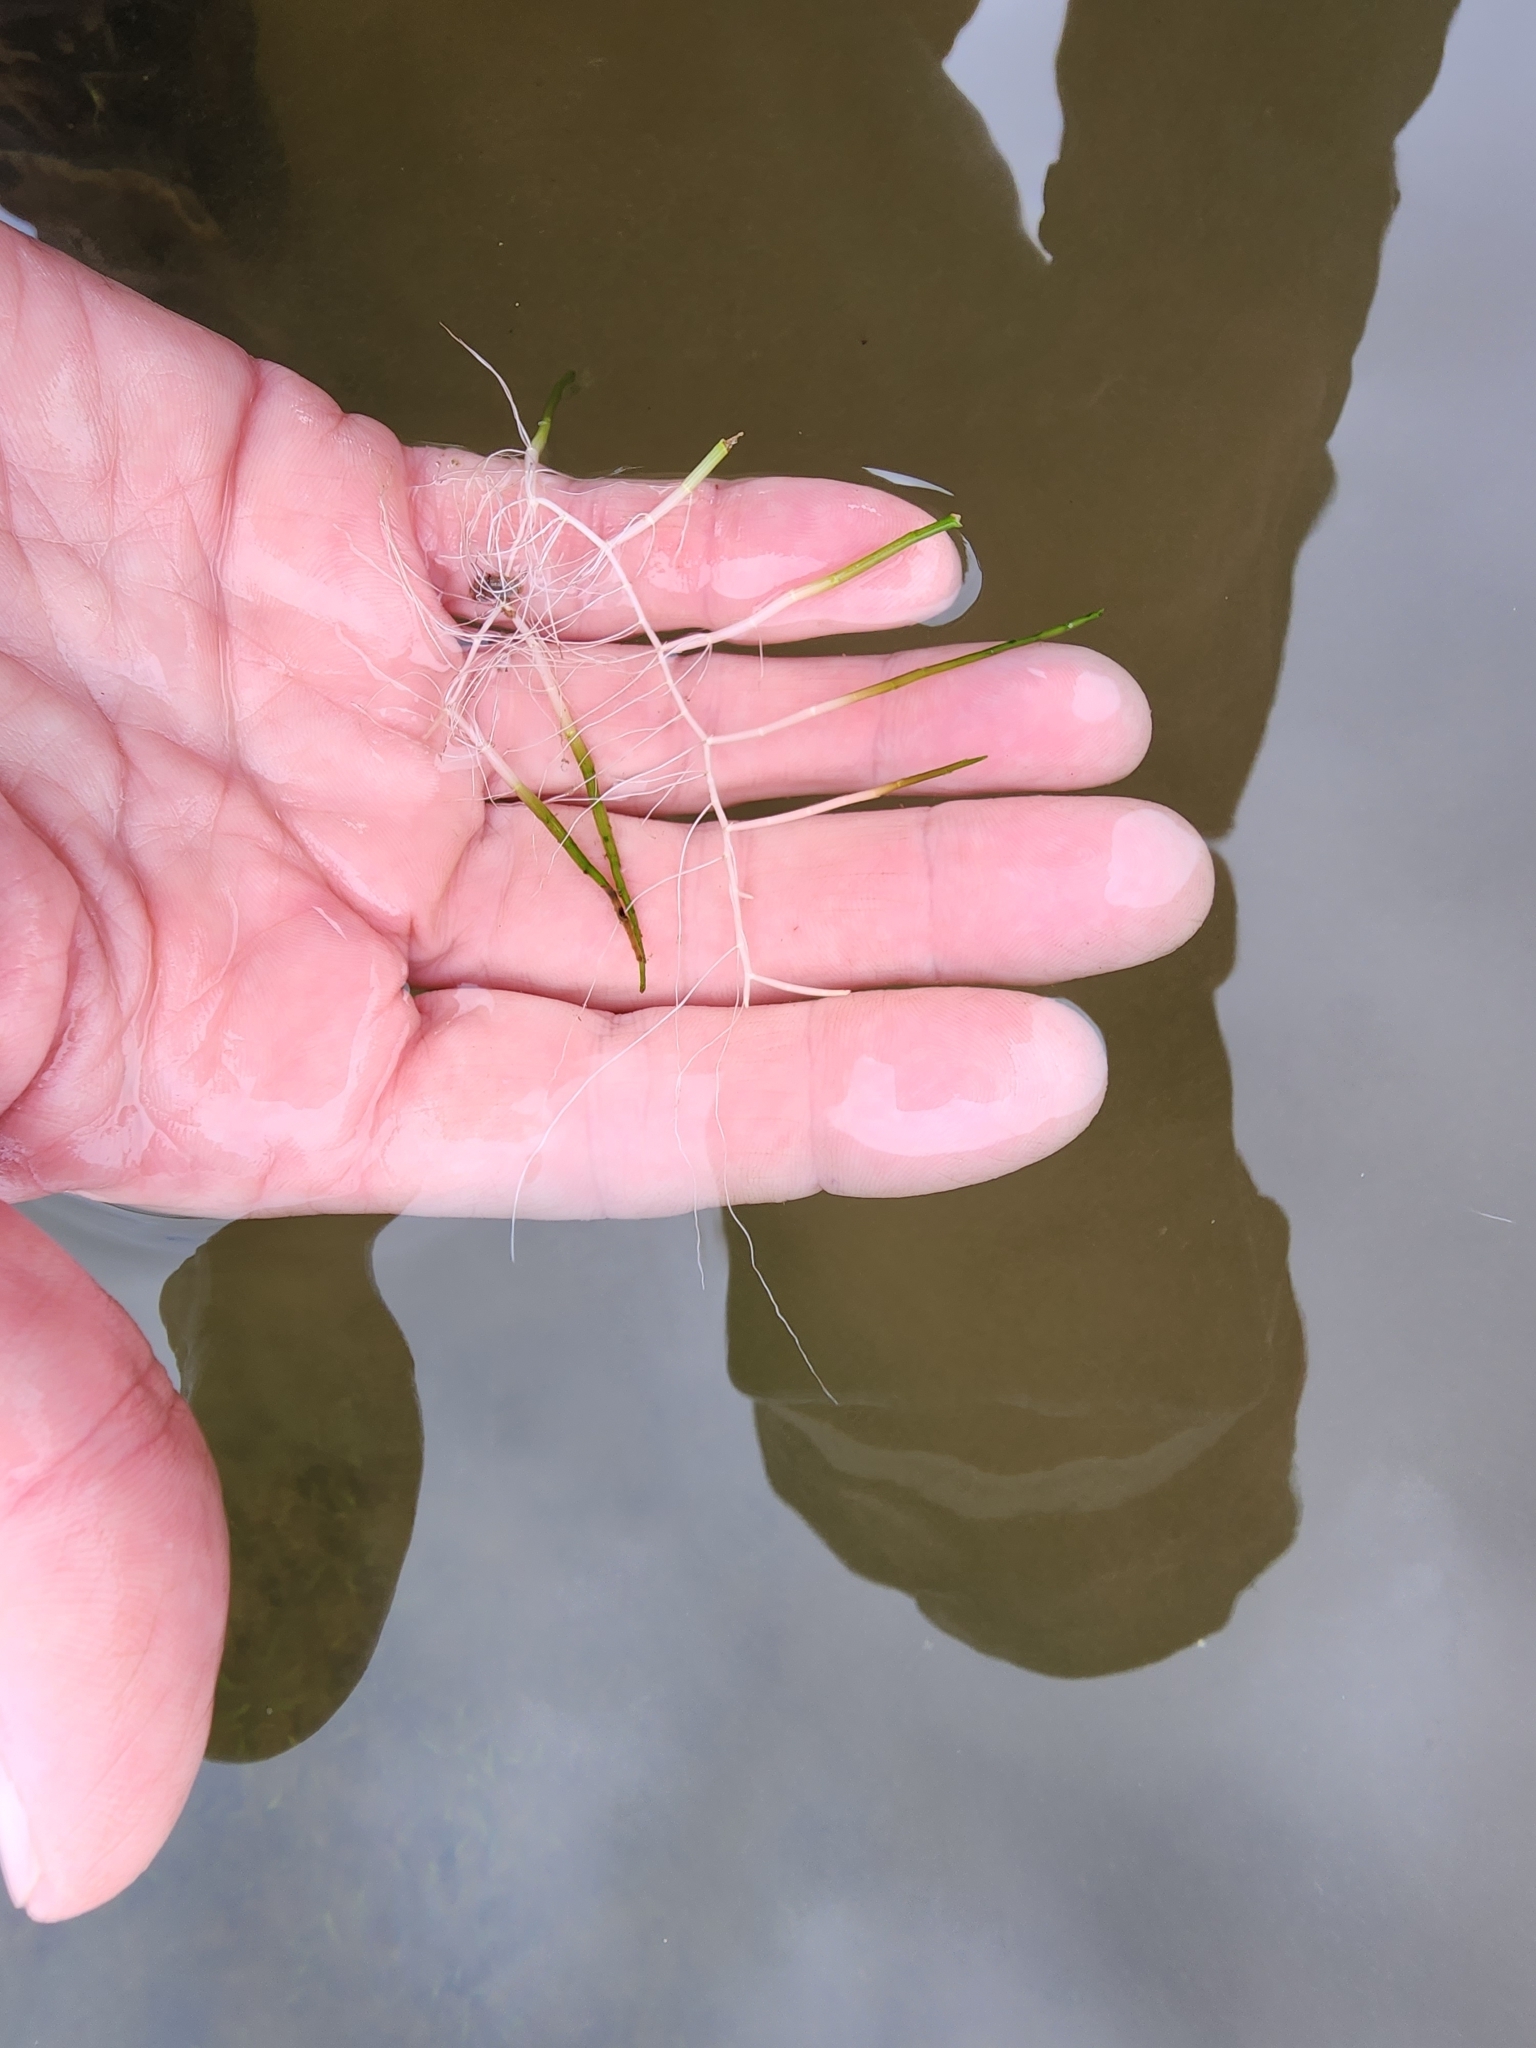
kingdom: Plantae
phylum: Tracheophyta
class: Magnoliopsida
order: Saxifragales
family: Haloragaceae
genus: Myriophyllum
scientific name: Myriophyllum tenellum
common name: Slender water-milfoil
